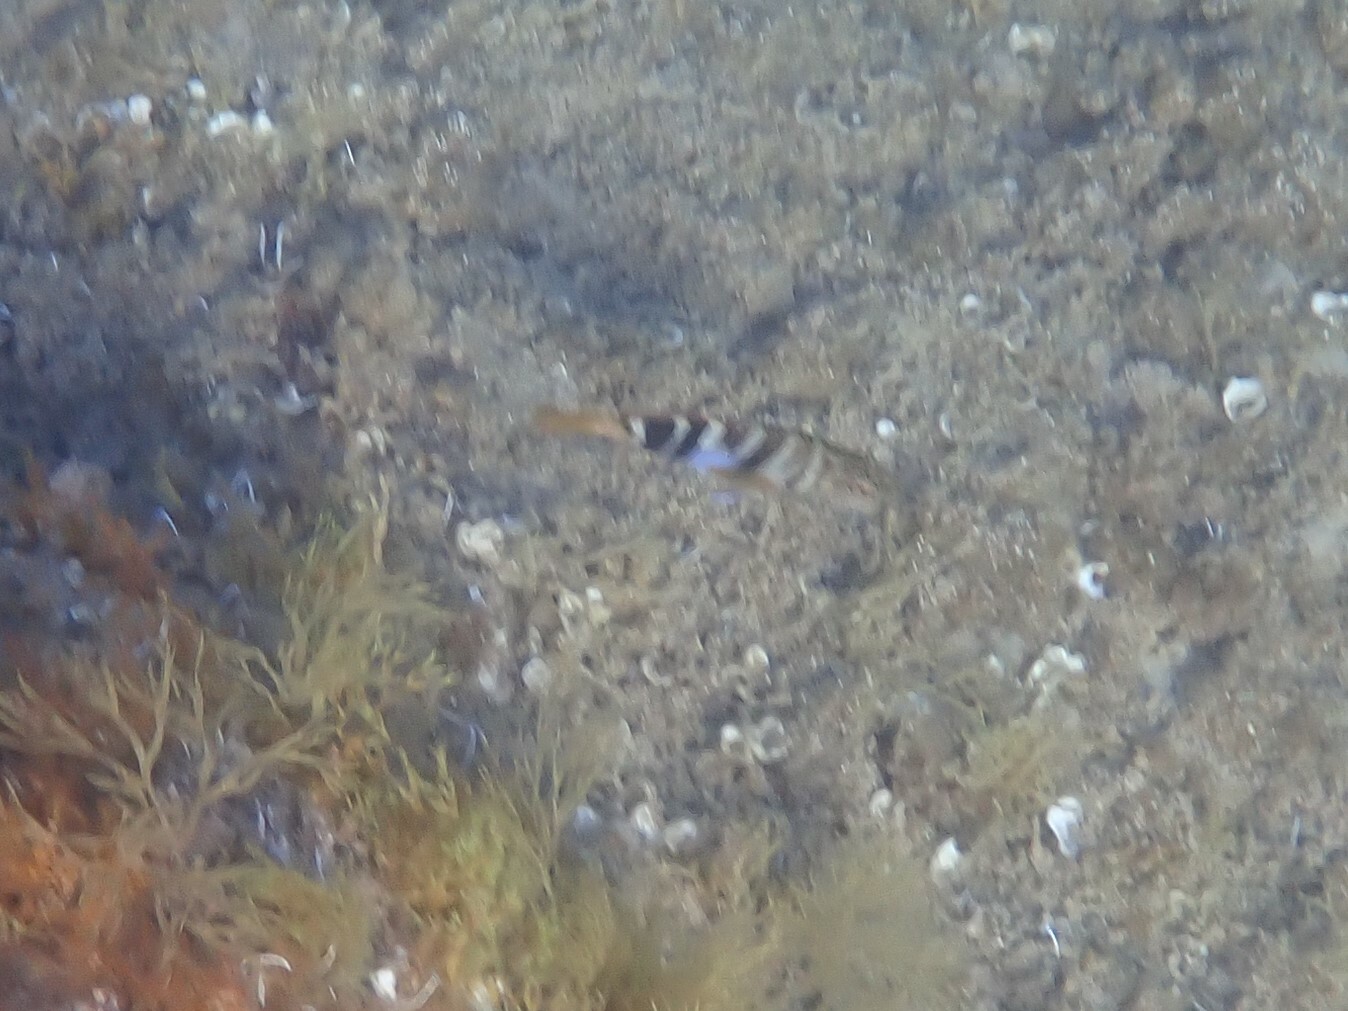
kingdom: Animalia
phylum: Chordata
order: Perciformes
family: Serranidae
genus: Serranus
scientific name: Serranus scriba
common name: Painted comber
